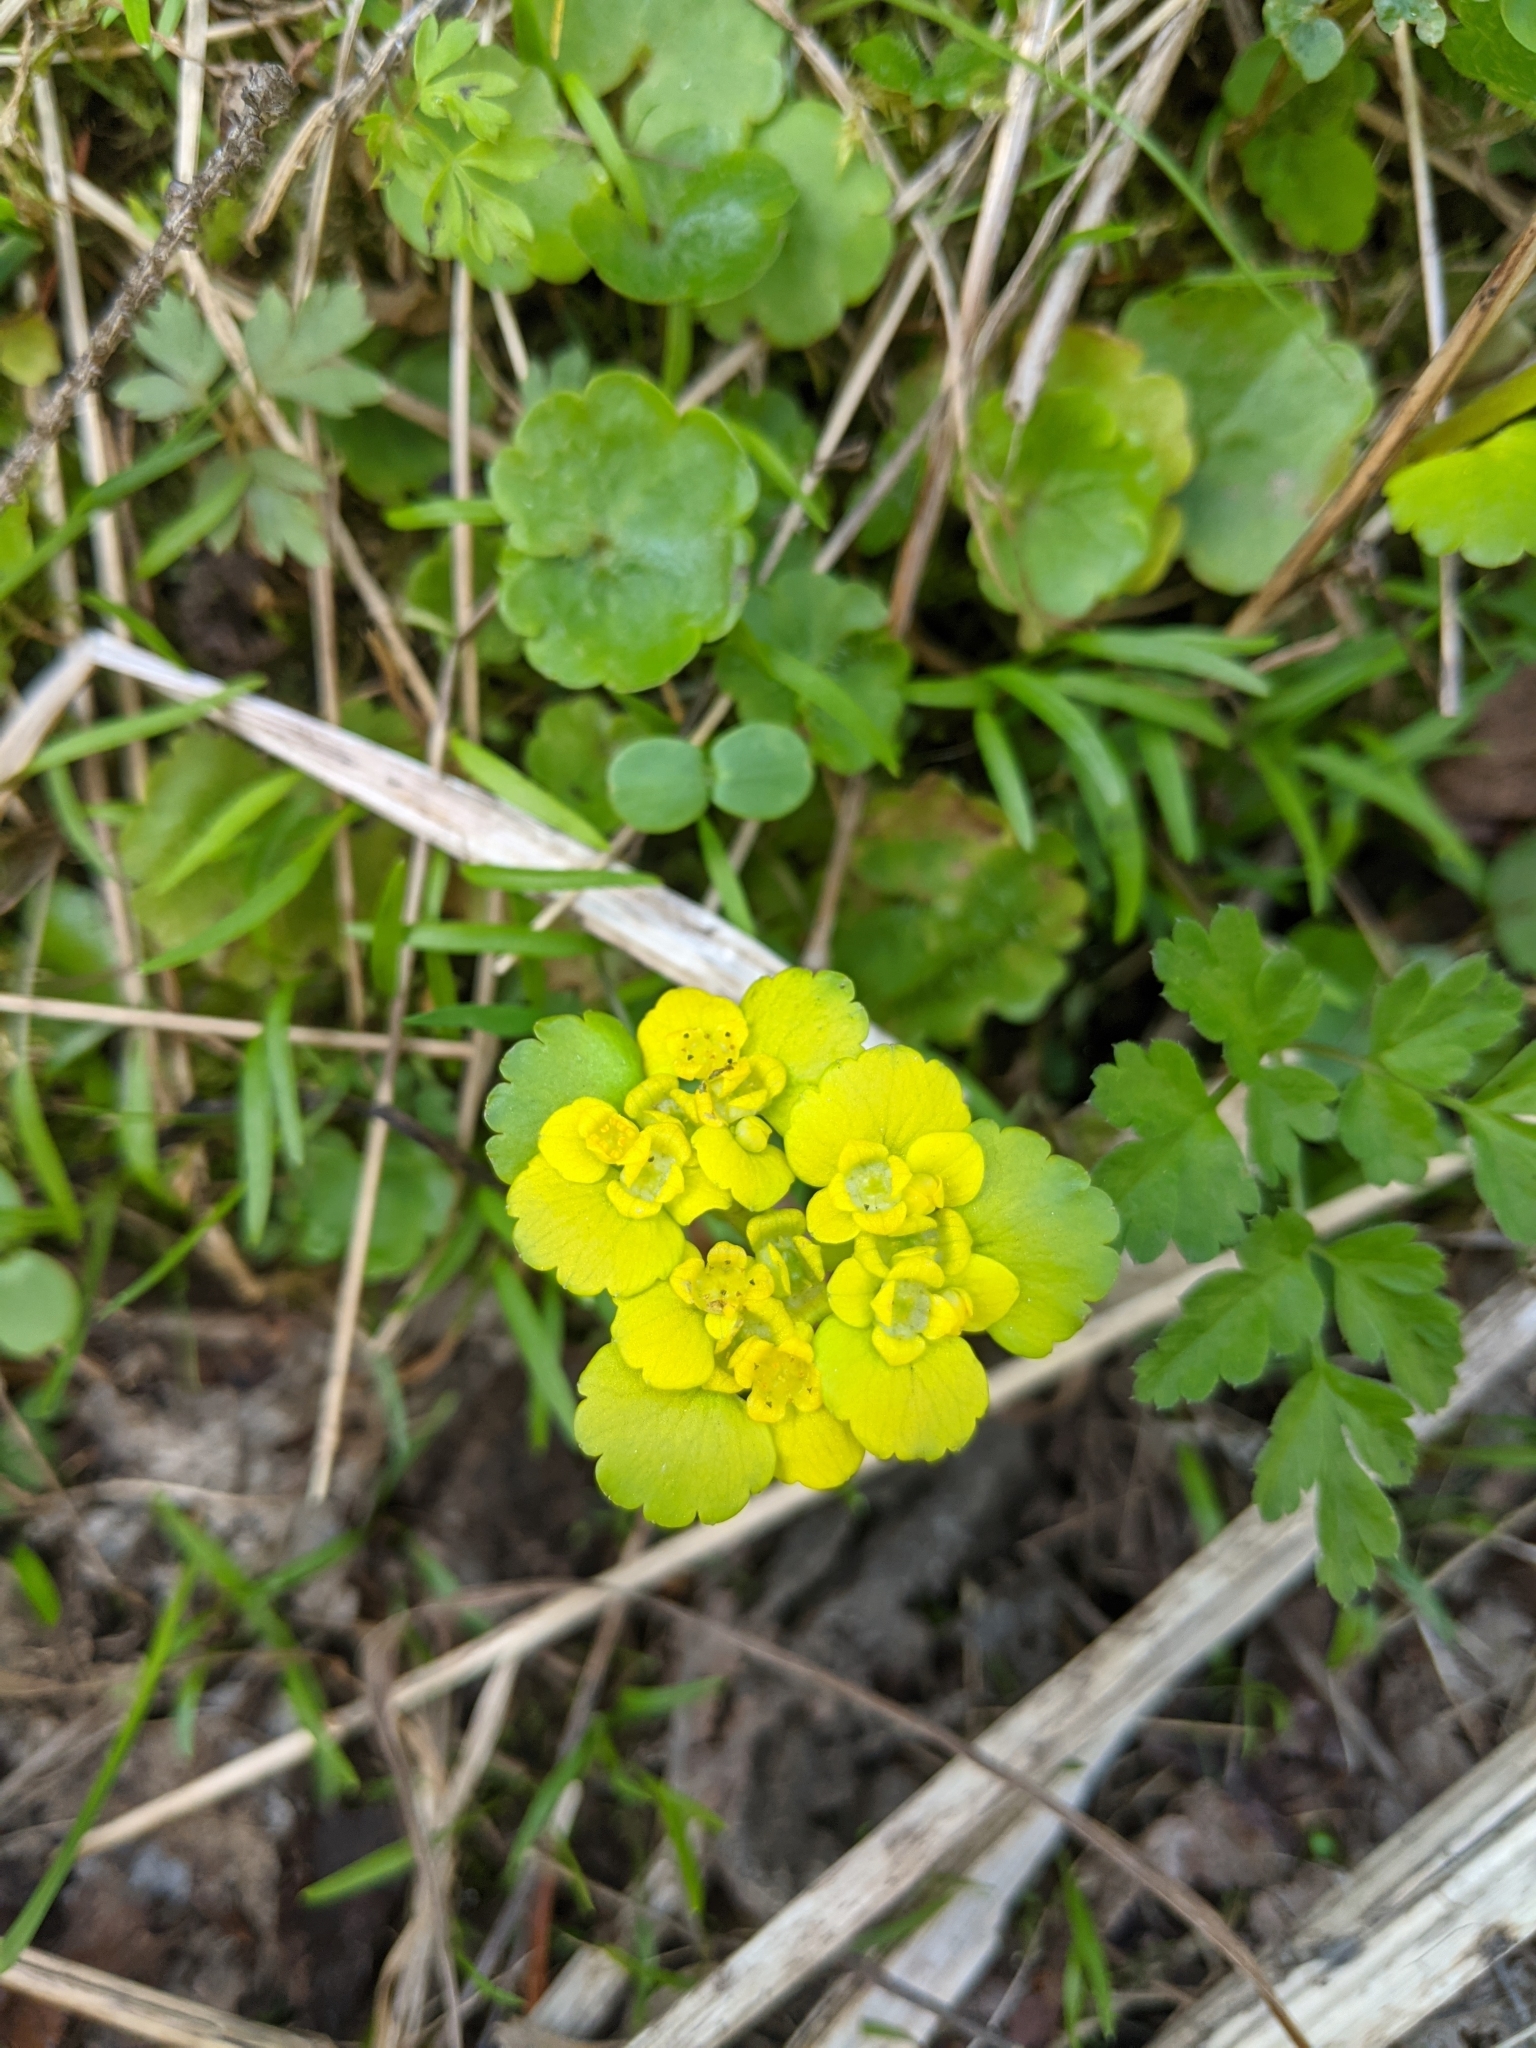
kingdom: Plantae
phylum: Tracheophyta
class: Magnoliopsida
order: Saxifragales
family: Saxifragaceae
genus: Chrysosplenium
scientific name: Chrysosplenium alternifolium
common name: Alternate-leaved golden-saxifrage
